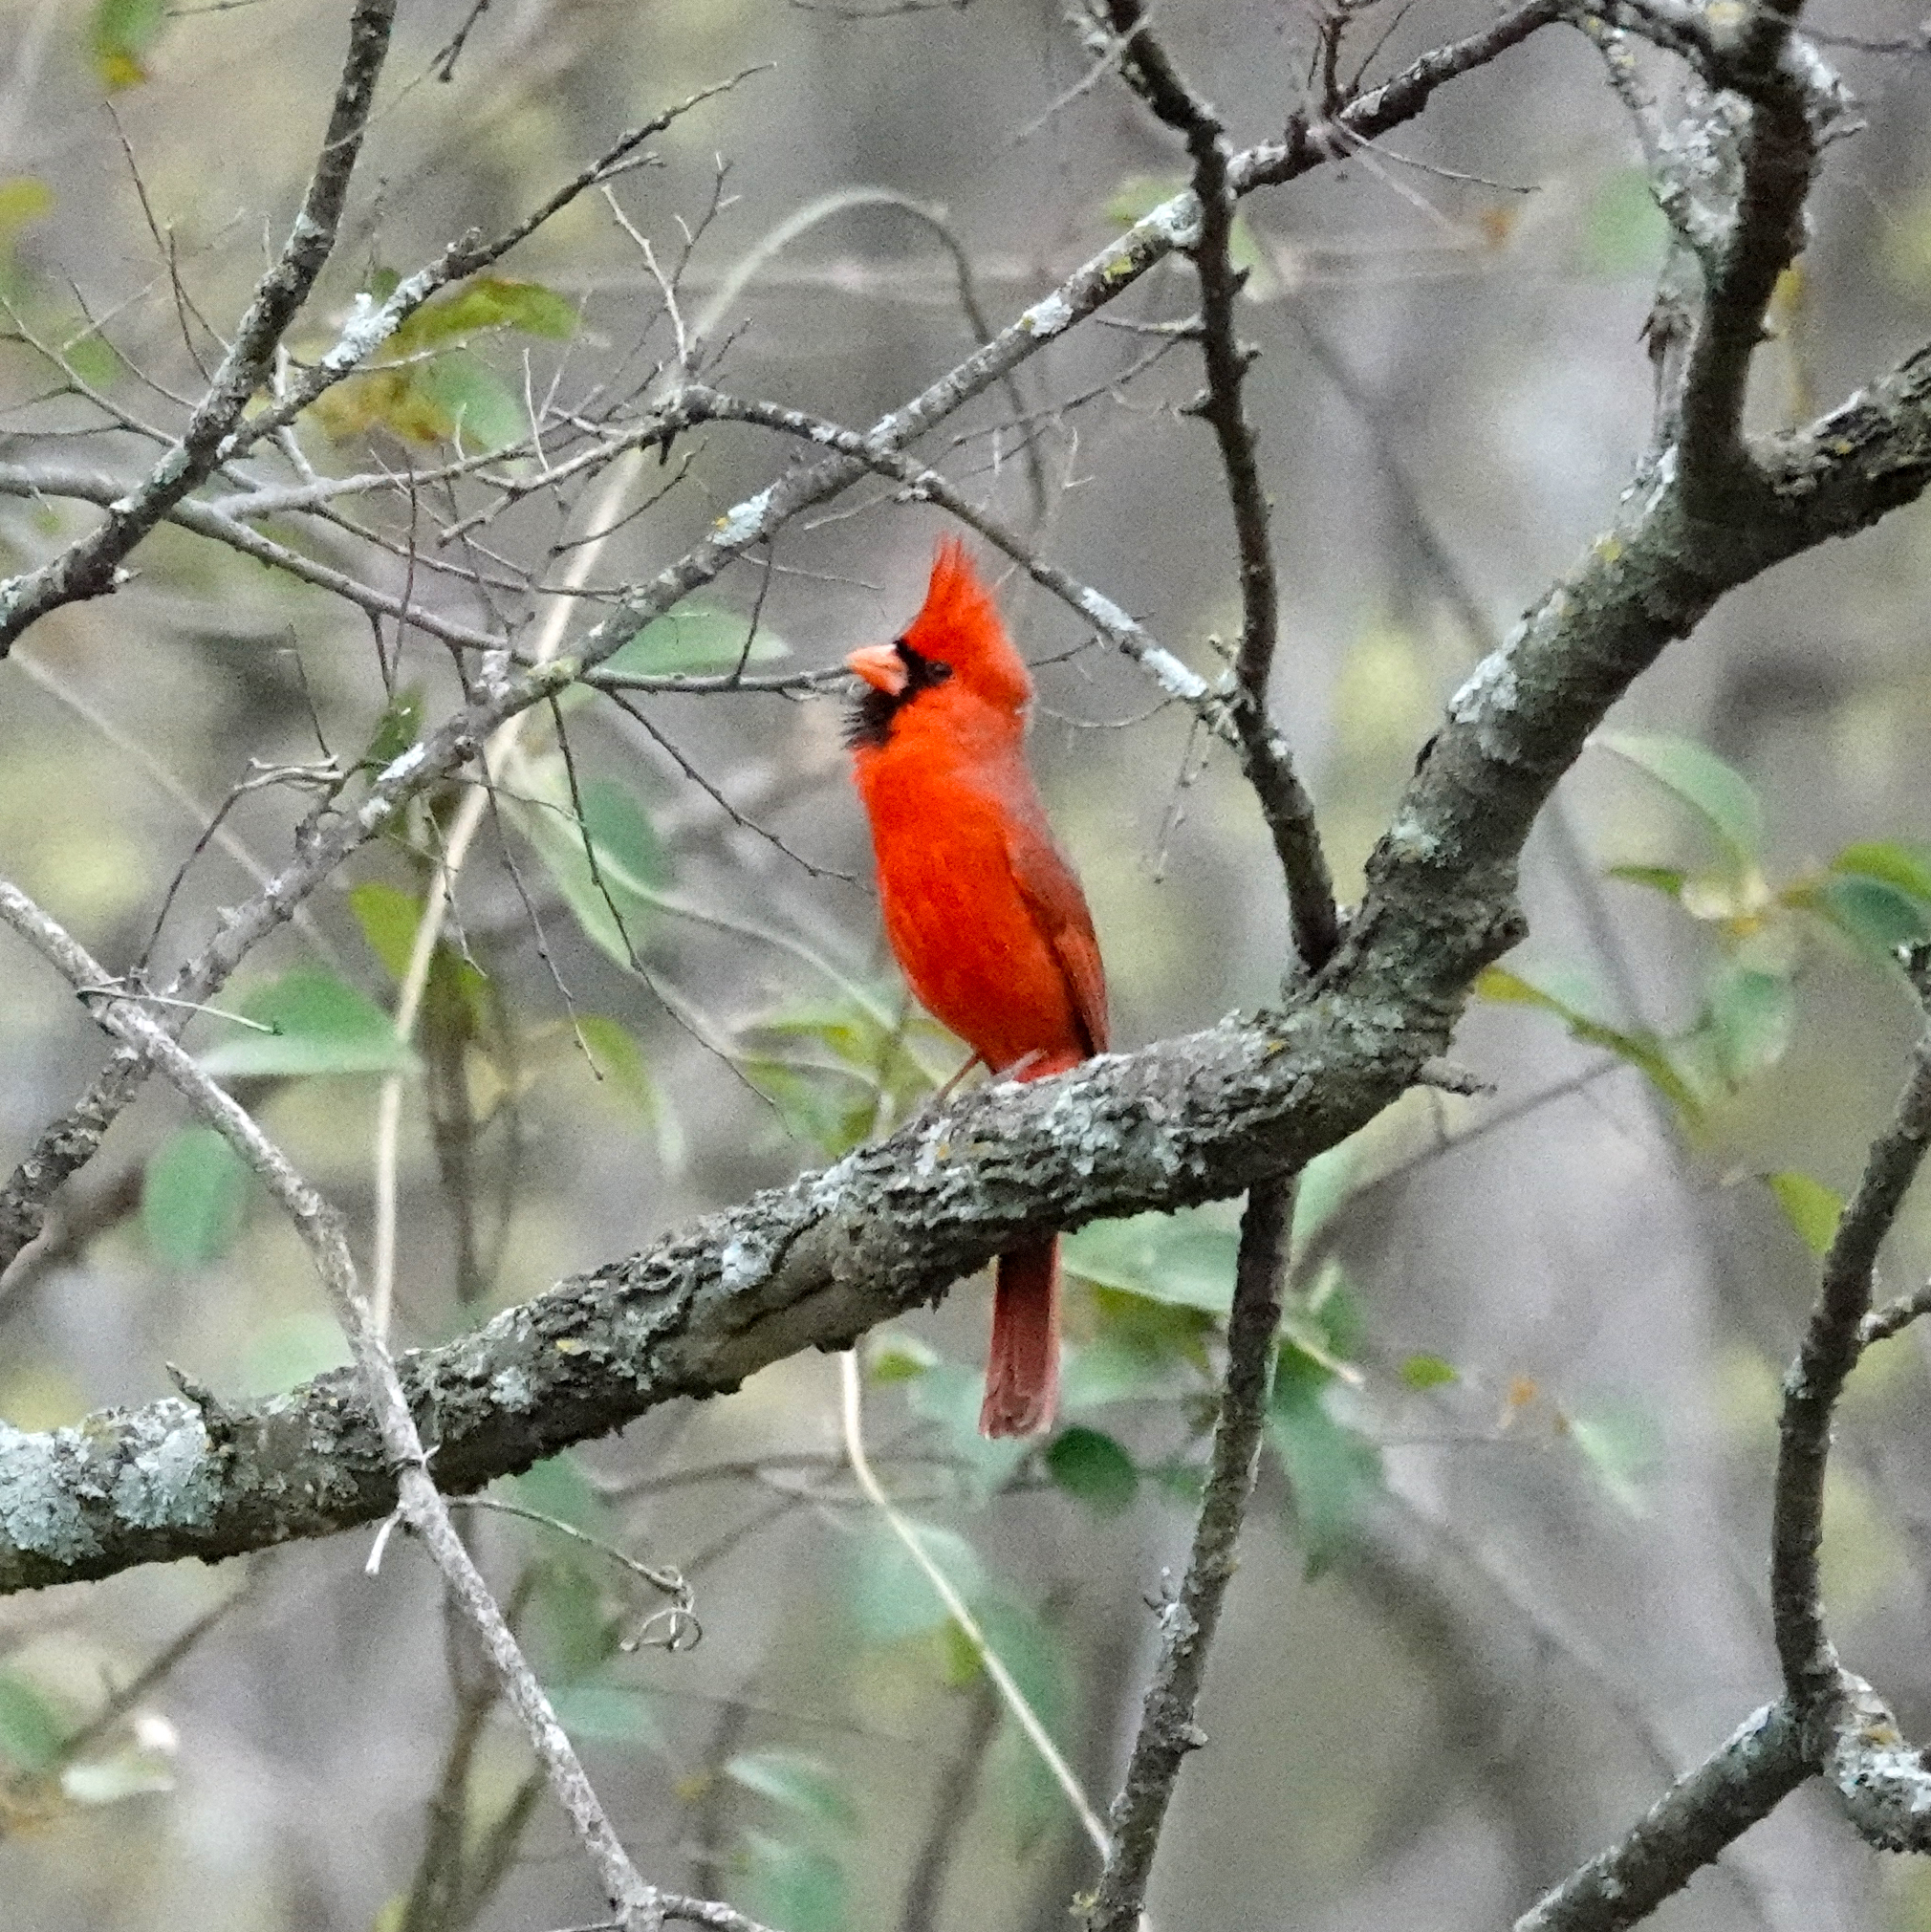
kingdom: Animalia
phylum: Chordata
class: Aves
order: Passeriformes
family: Cardinalidae
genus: Cardinalis
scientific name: Cardinalis cardinalis
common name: Northern cardinal
